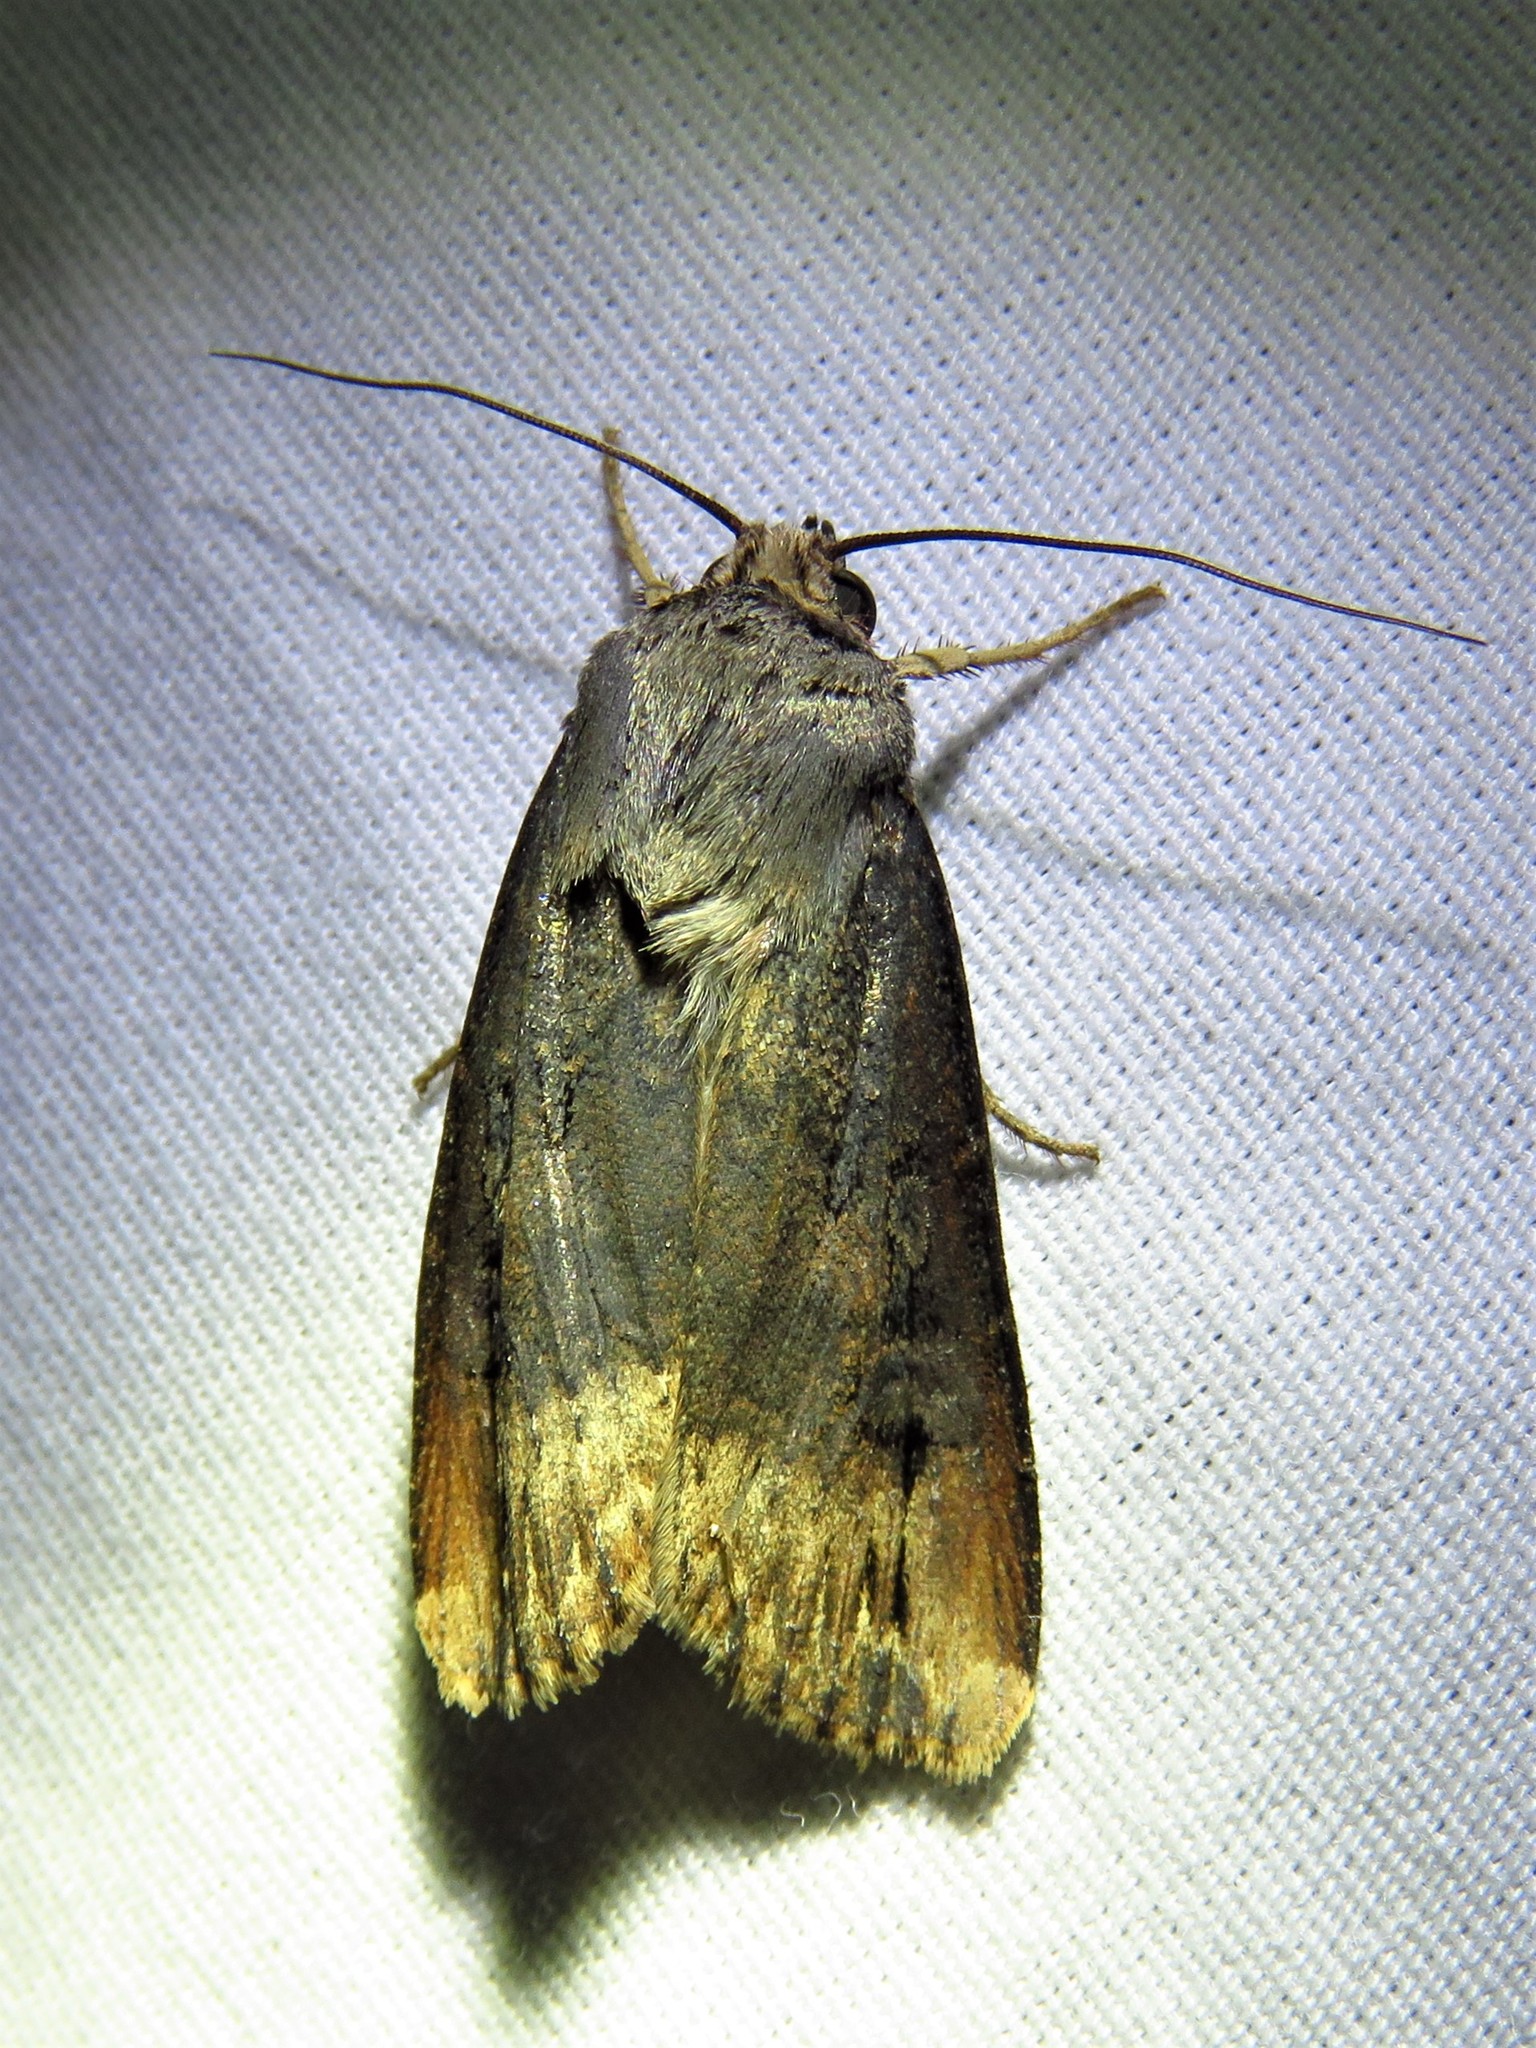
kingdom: Animalia
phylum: Arthropoda
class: Insecta
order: Lepidoptera
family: Noctuidae
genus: Agrotis
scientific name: Agrotis ipsilon
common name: Dark sword-grass
